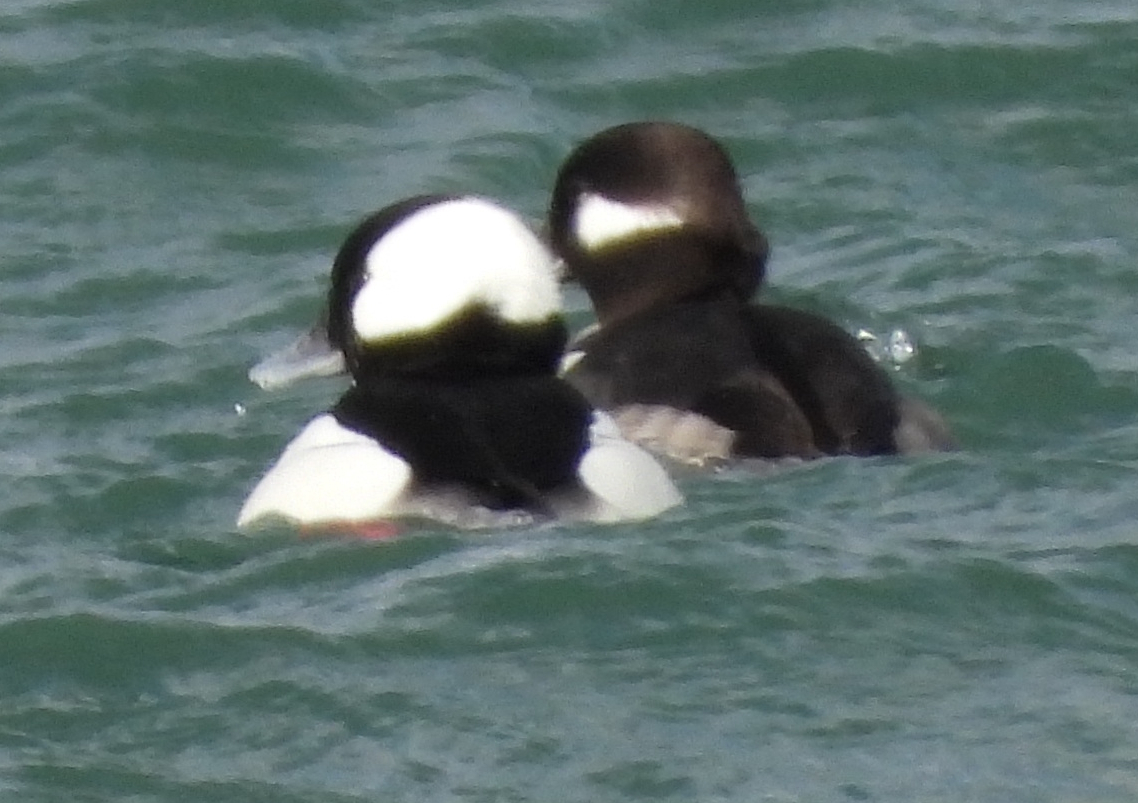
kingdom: Animalia
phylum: Chordata
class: Aves
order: Anseriformes
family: Anatidae
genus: Bucephala
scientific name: Bucephala albeola
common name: Bufflehead
